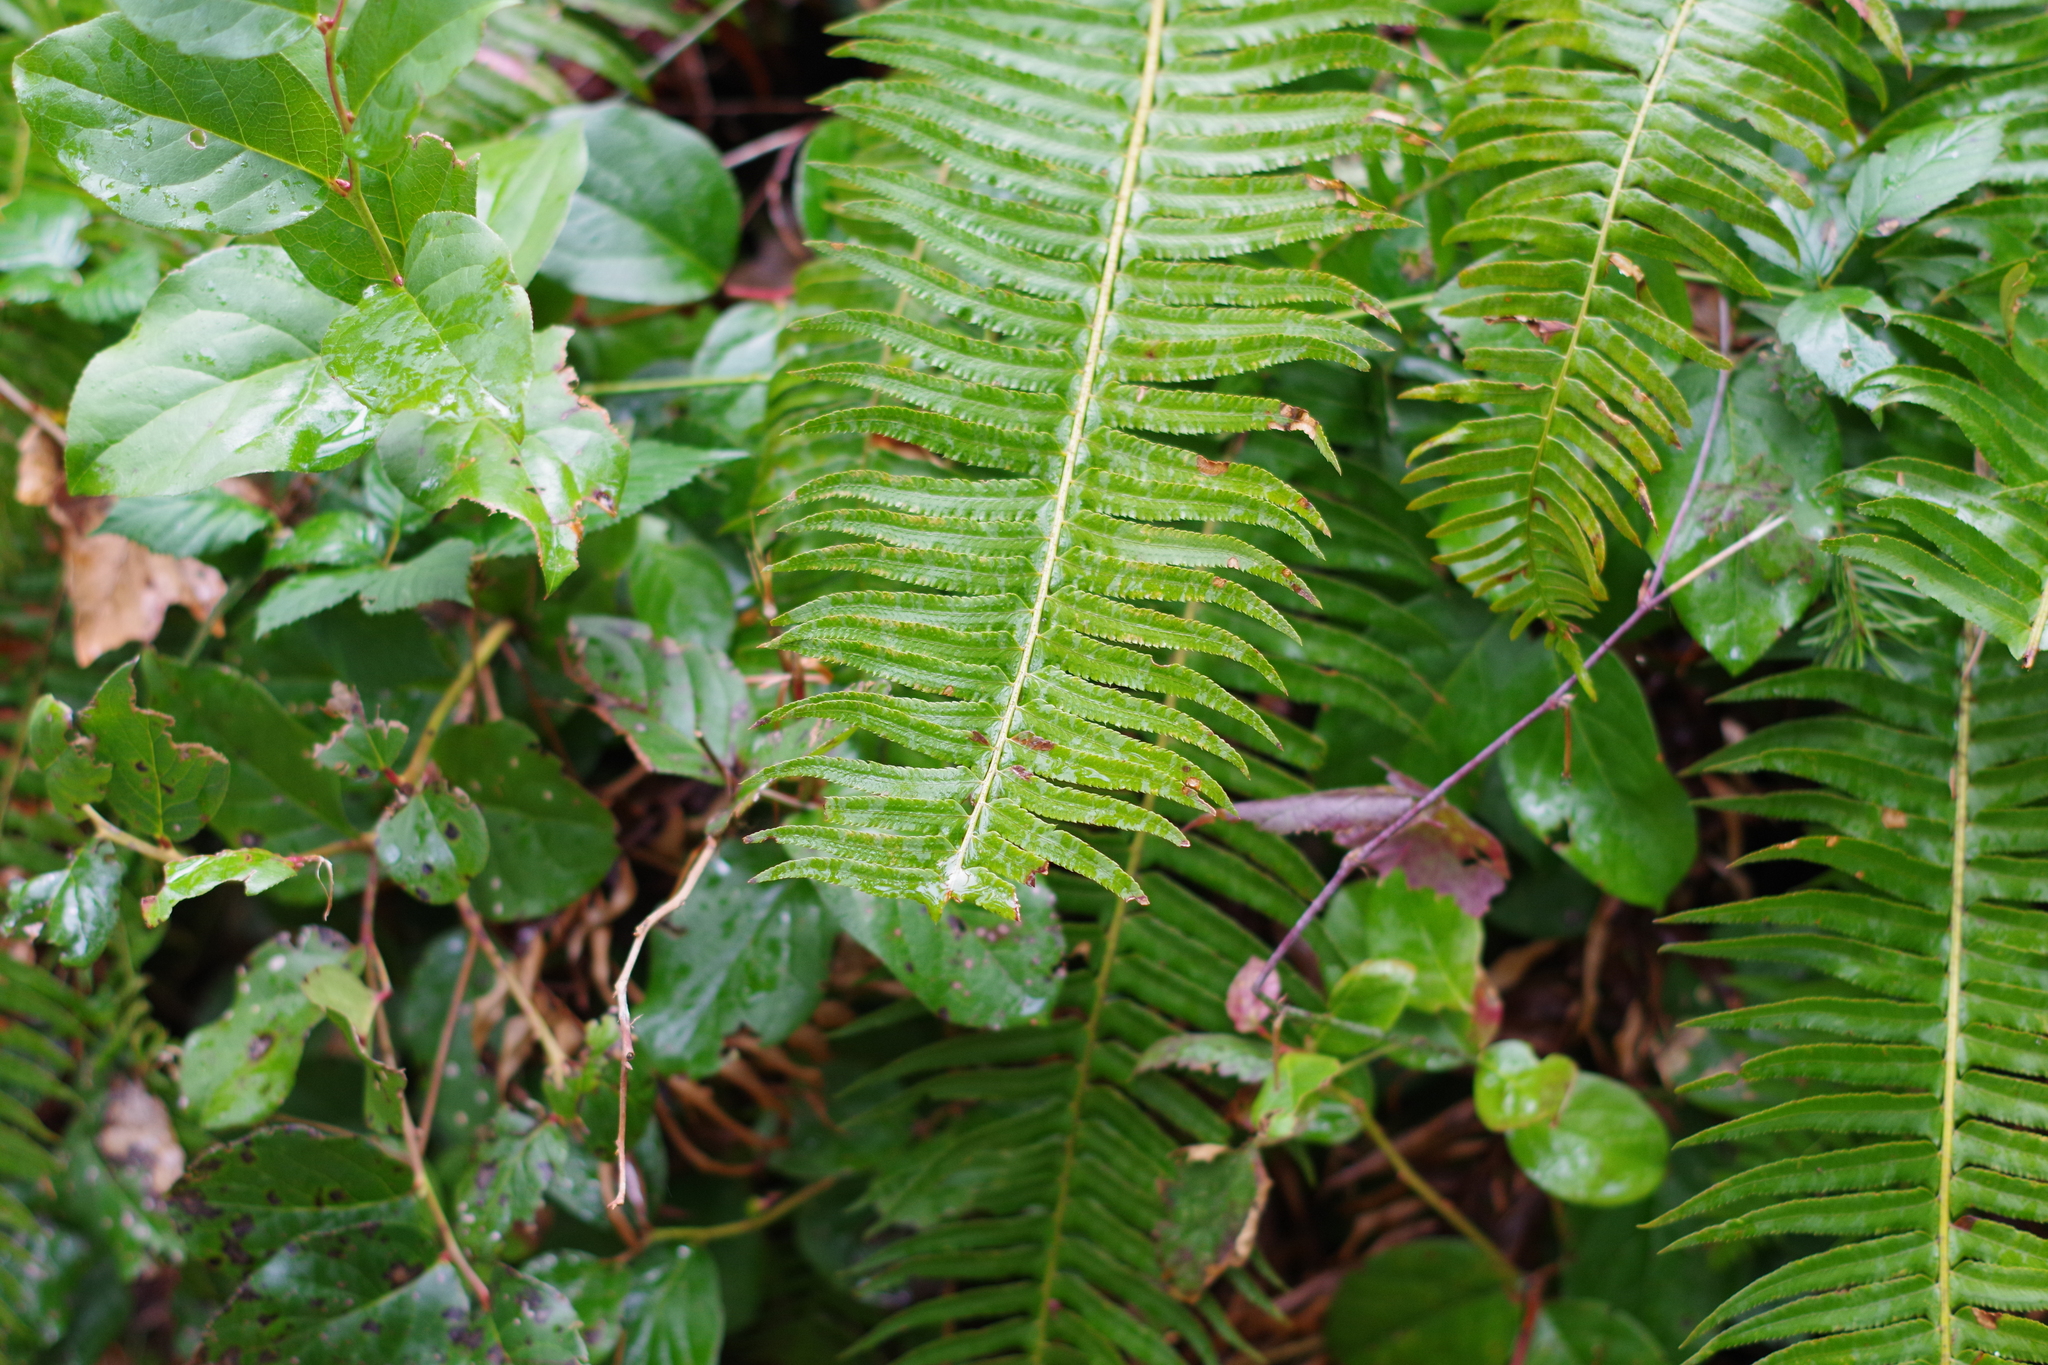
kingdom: Plantae
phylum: Tracheophyta
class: Polypodiopsida
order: Polypodiales
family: Dryopteridaceae
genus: Polystichum
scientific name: Polystichum munitum
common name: Western sword-fern
